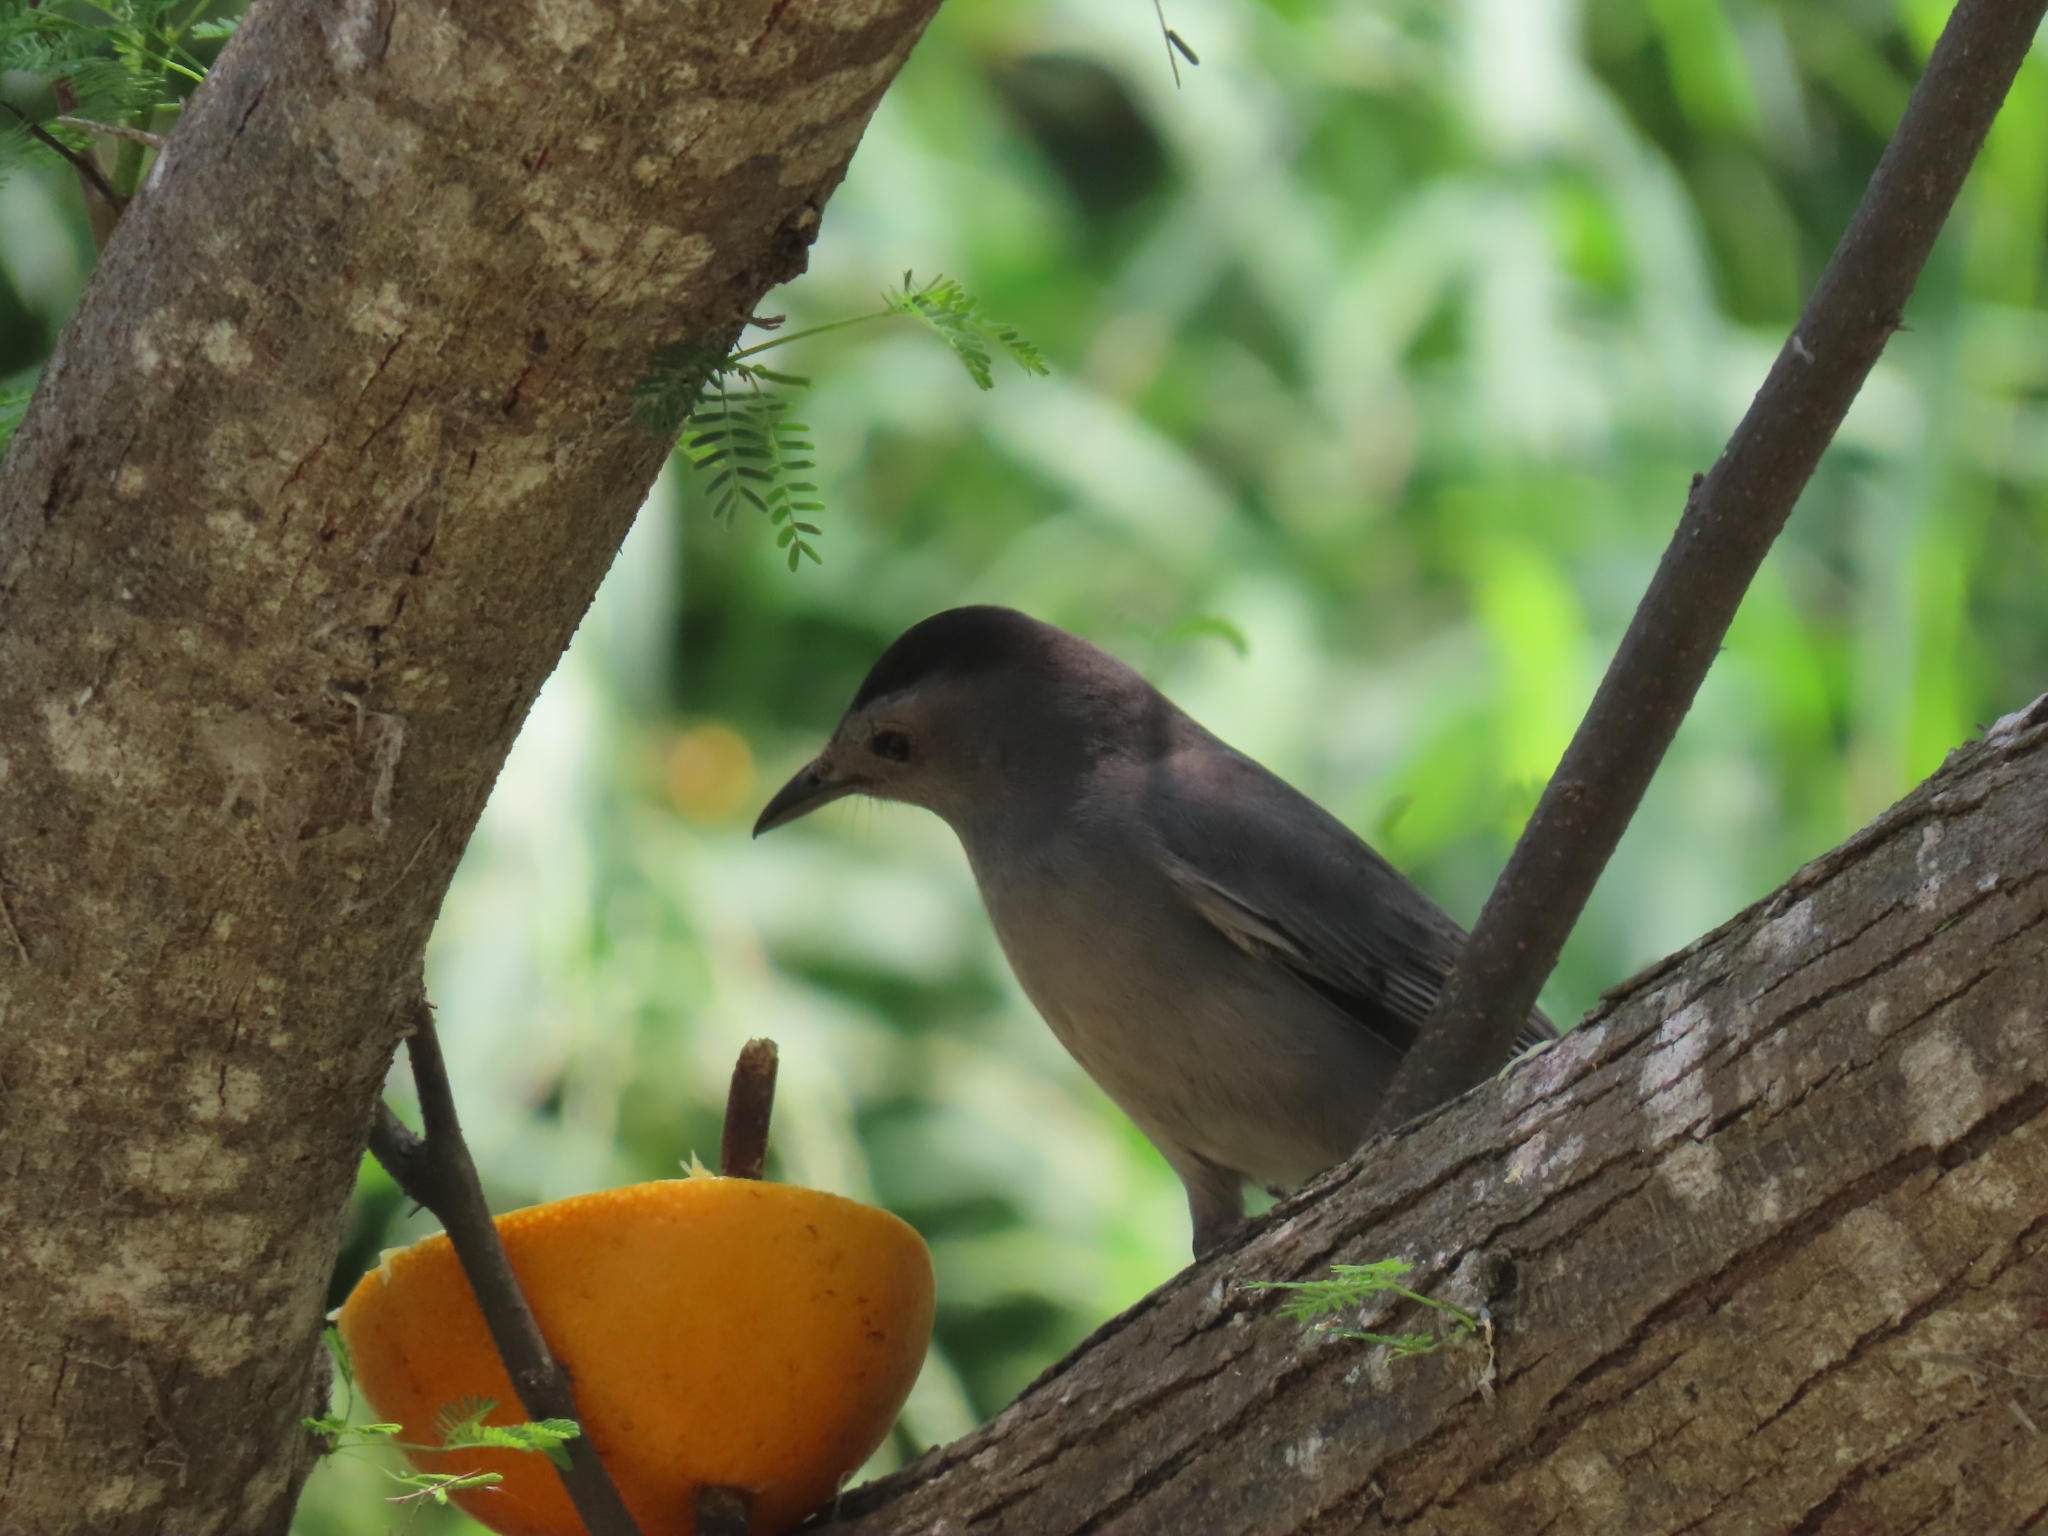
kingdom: Animalia
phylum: Chordata
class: Aves
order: Passeriformes
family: Mimidae
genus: Dumetella
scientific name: Dumetella carolinensis
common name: Gray catbird
